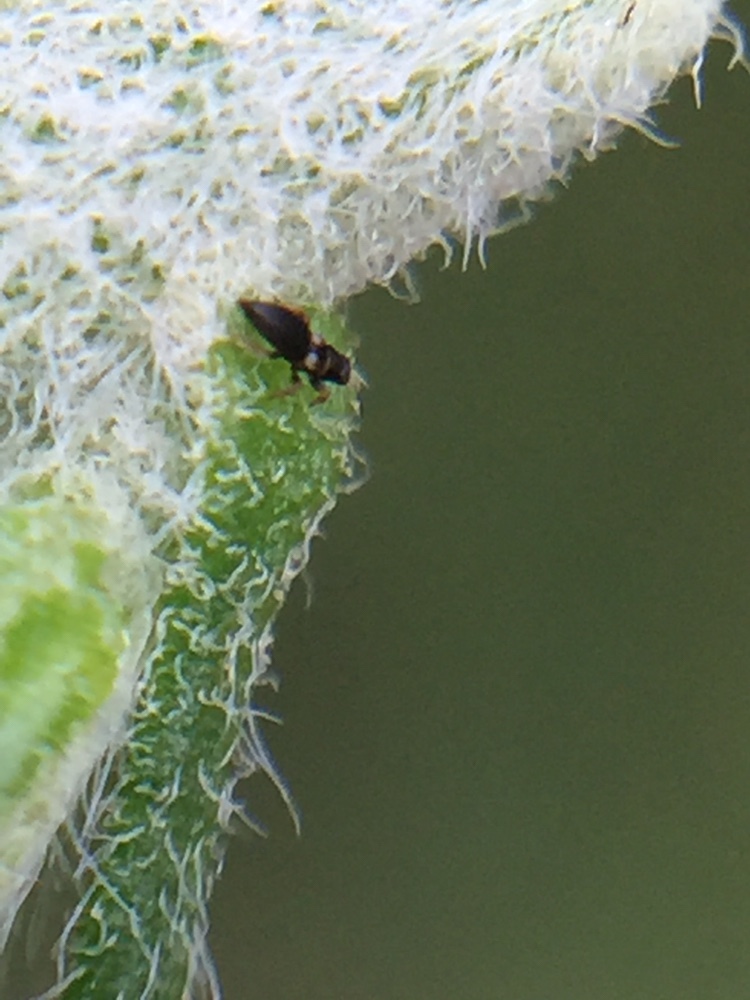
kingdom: Animalia
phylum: Arthropoda
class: Insecta
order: Thysanoptera
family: Thripidae
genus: Sericothrips
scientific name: Sericothrips staphylinus
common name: Gorse thrips
